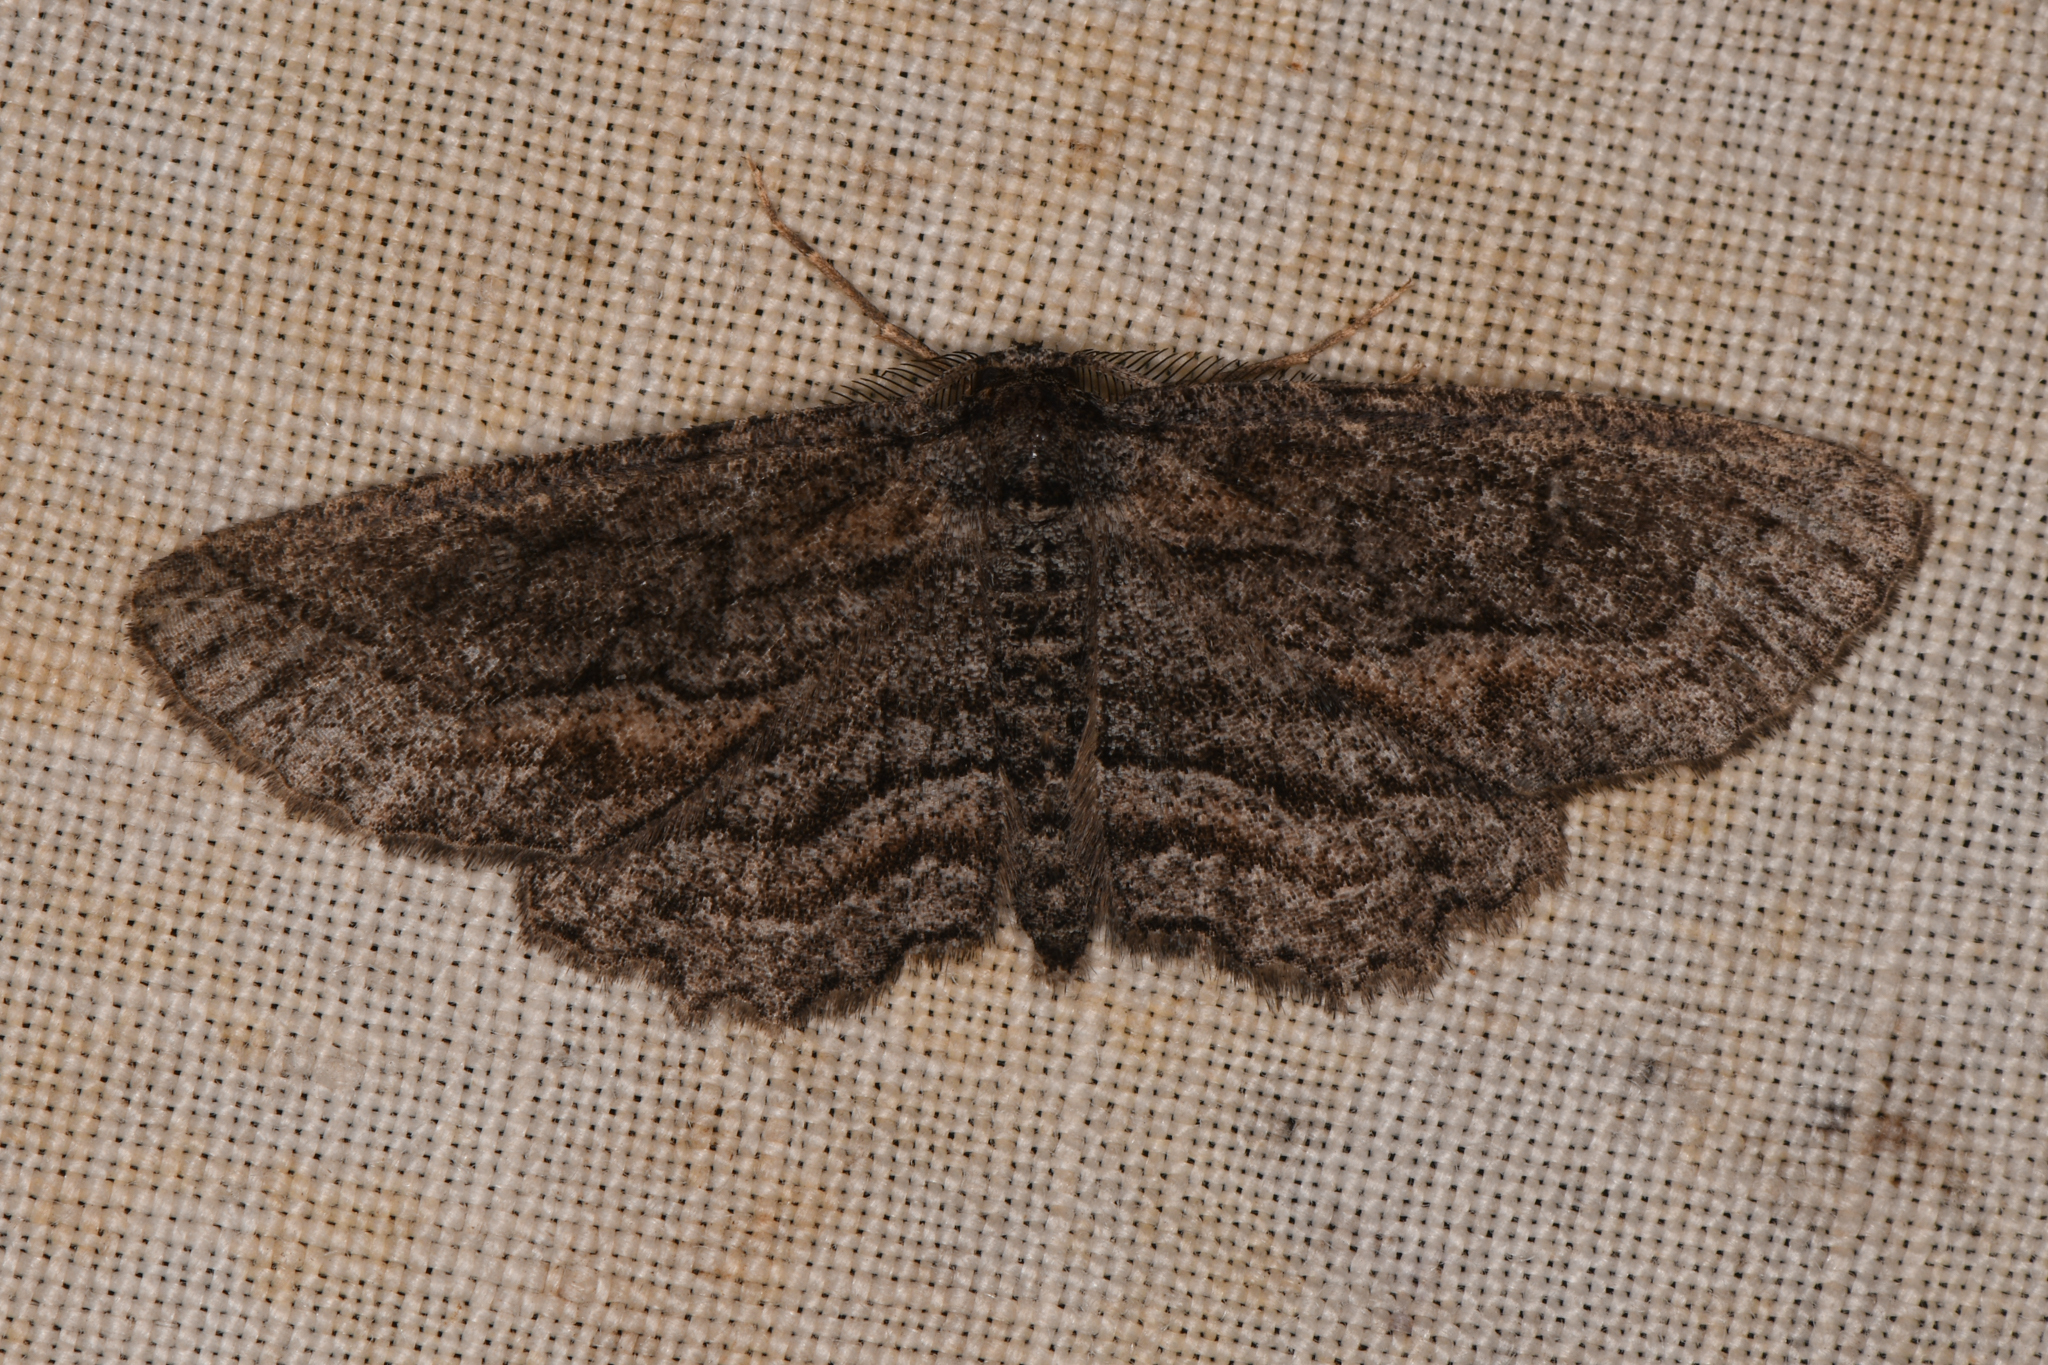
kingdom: Animalia
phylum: Arthropoda
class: Insecta
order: Lepidoptera
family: Geometridae
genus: Aethaloida
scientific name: Aethaloida packardaria
